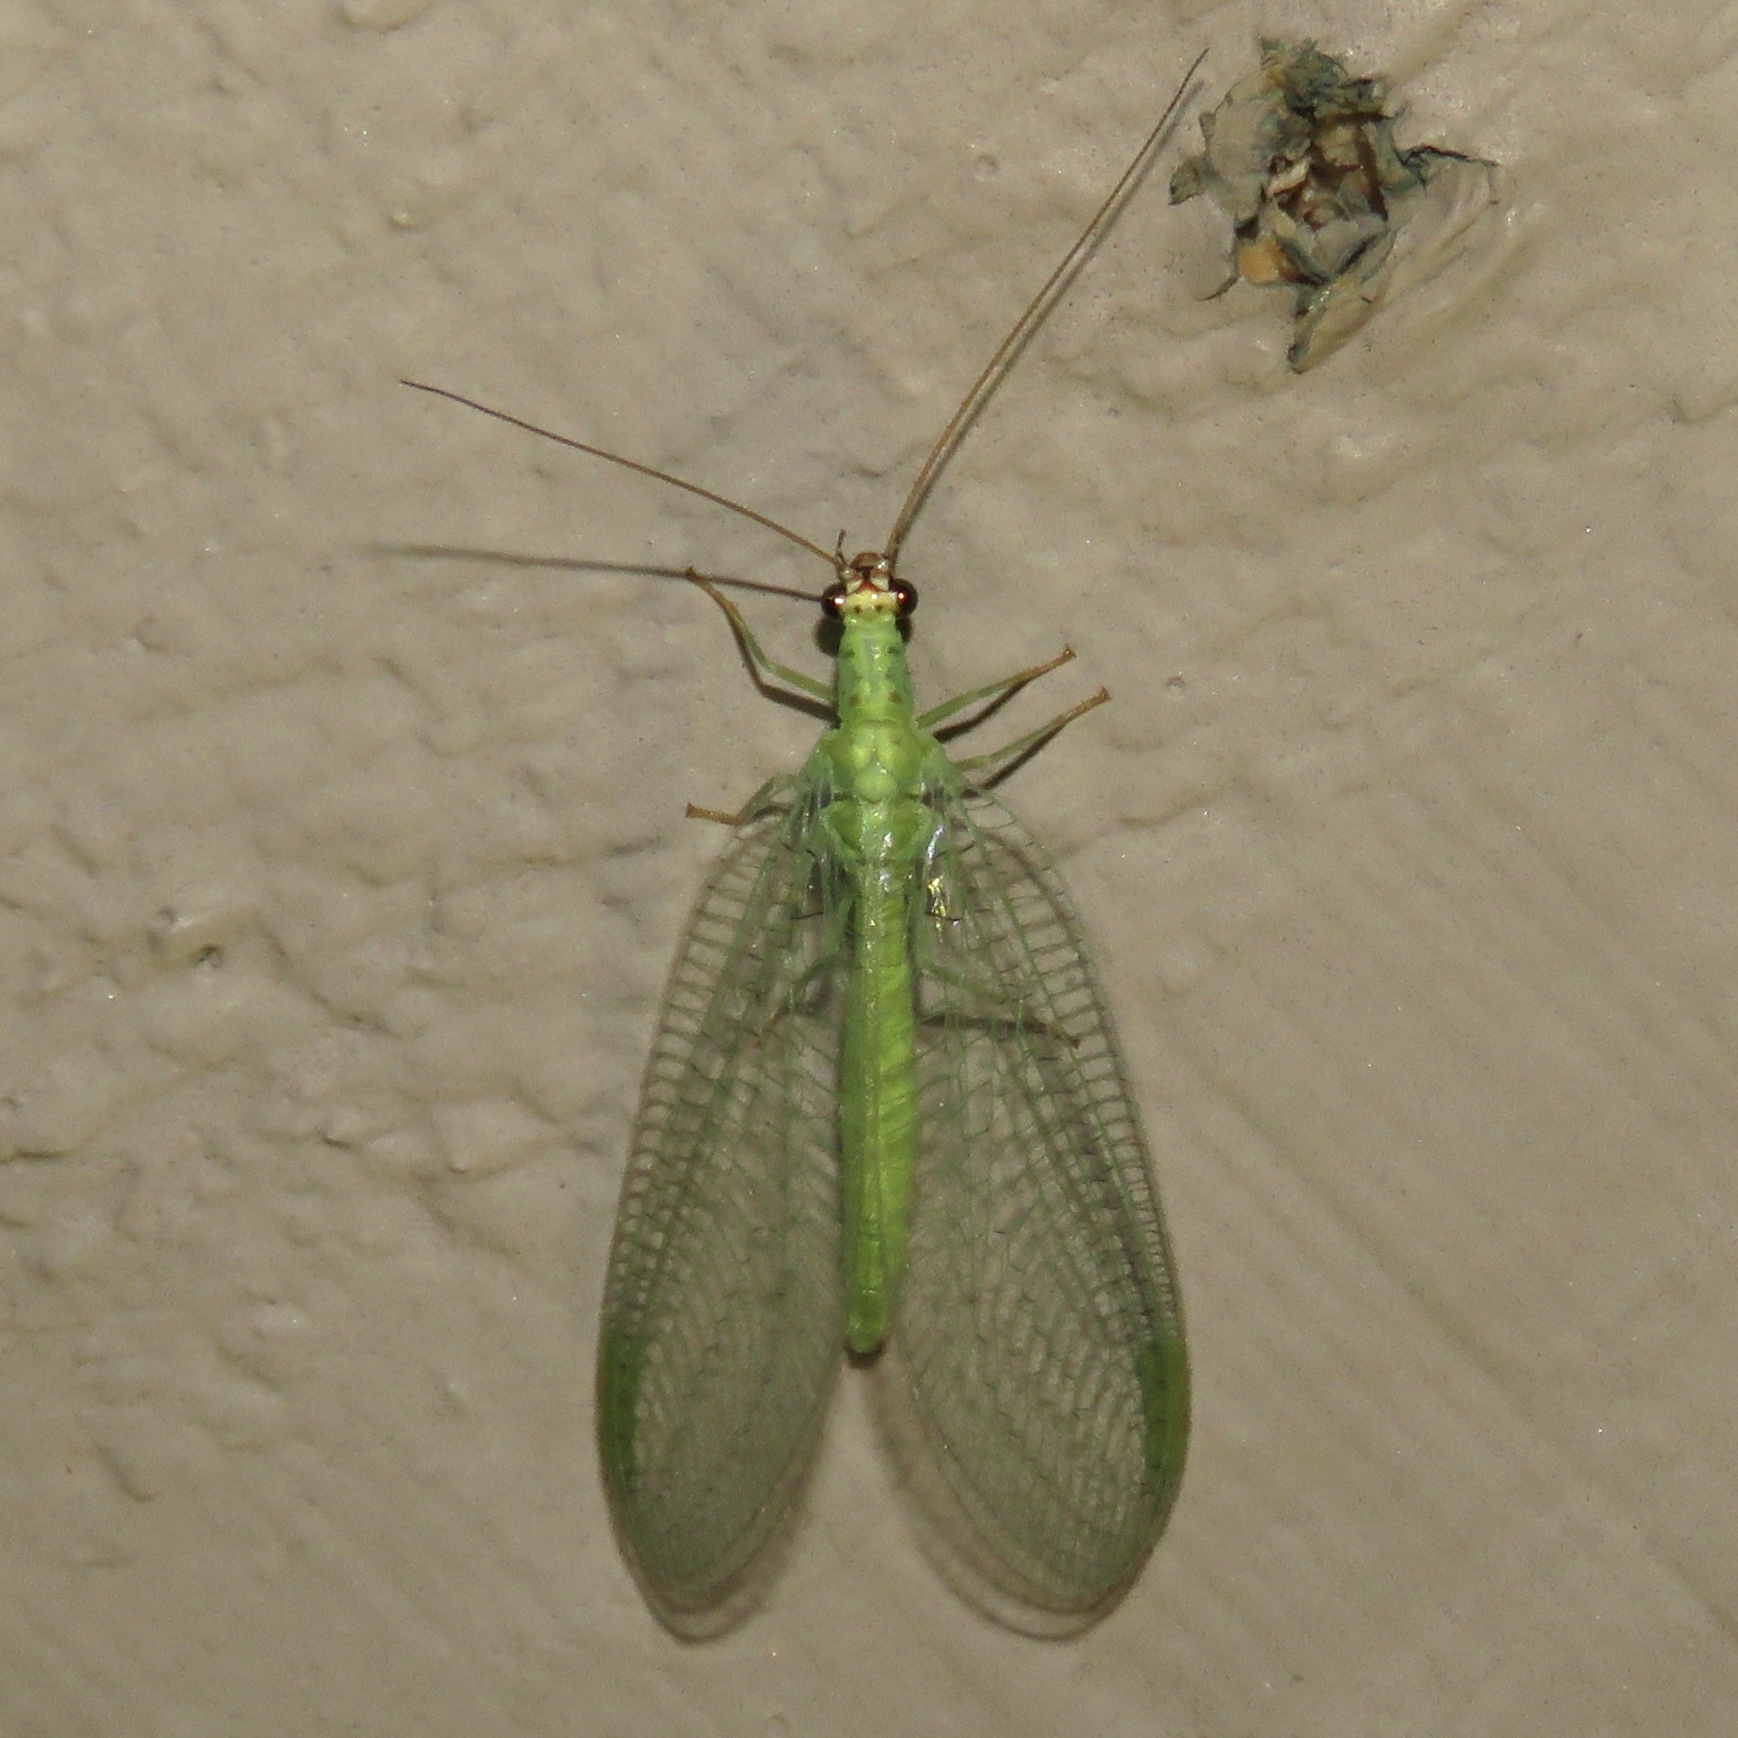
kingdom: Animalia
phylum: Arthropoda
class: Insecta
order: Neuroptera
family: Chrysopidae
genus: Chrysopa
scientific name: Chrysopa oculata
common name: Golden-eyed lacewing
